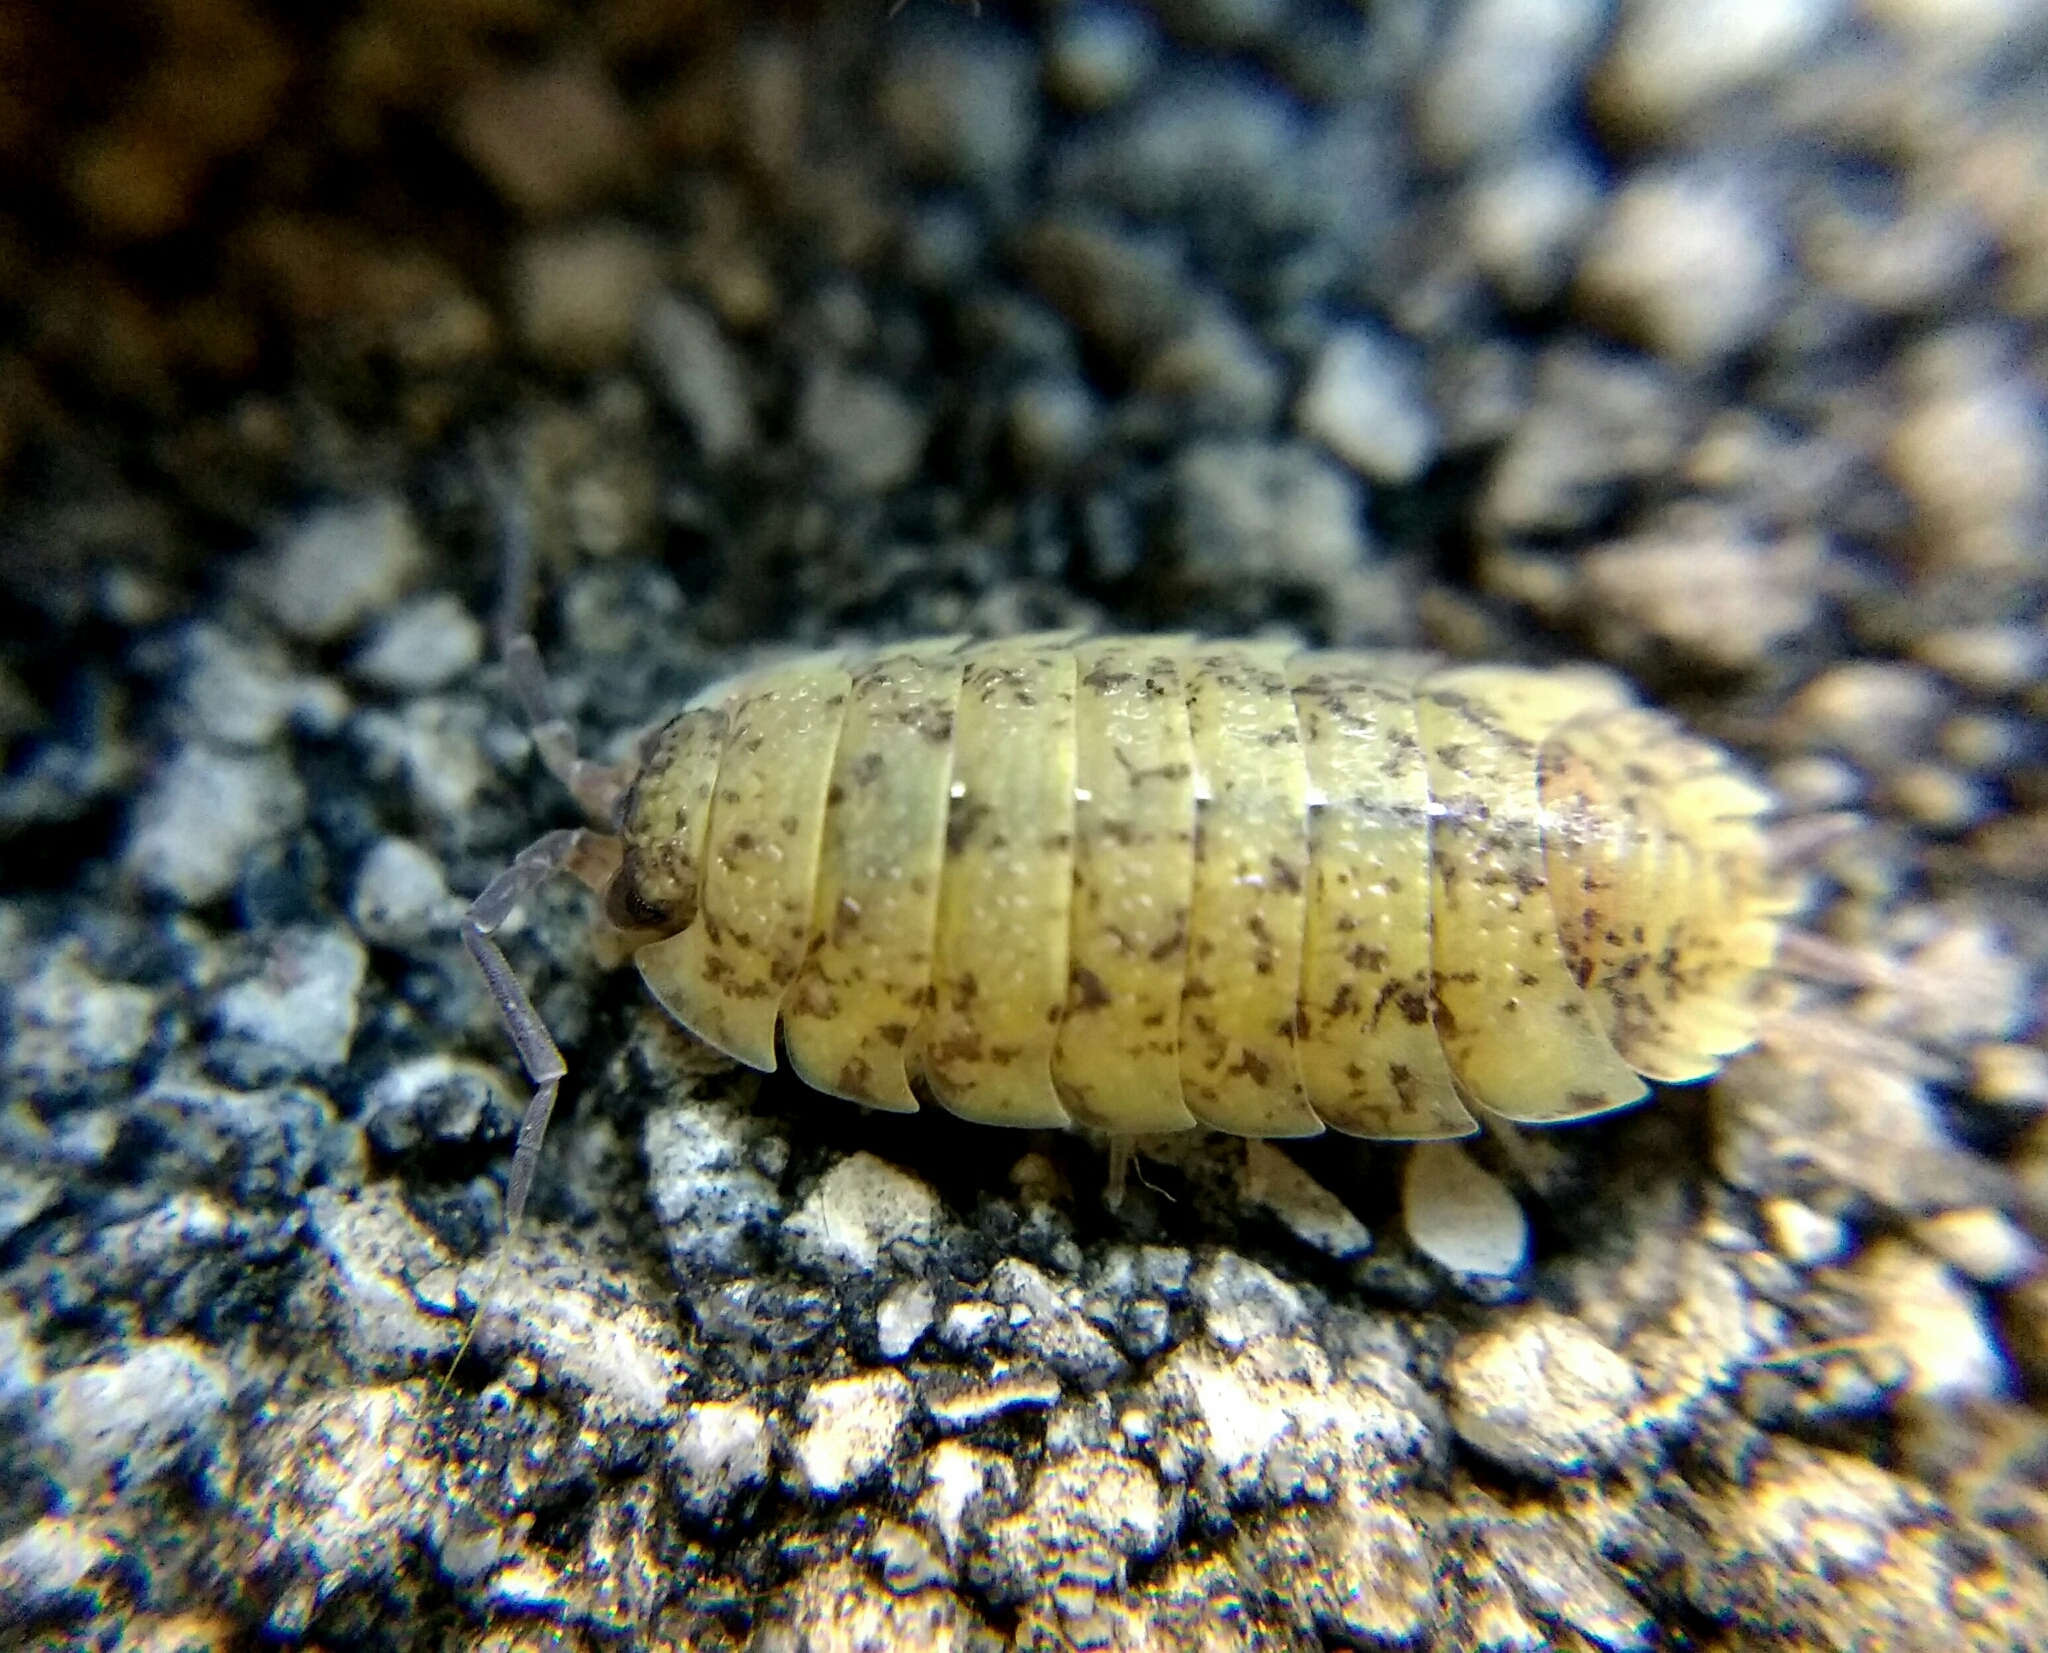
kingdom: Animalia
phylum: Arthropoda
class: Malacostraca
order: Isopoda
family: Porcellionidae
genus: Porcellio
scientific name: Porcellio scaber
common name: Common rough woodlouse
